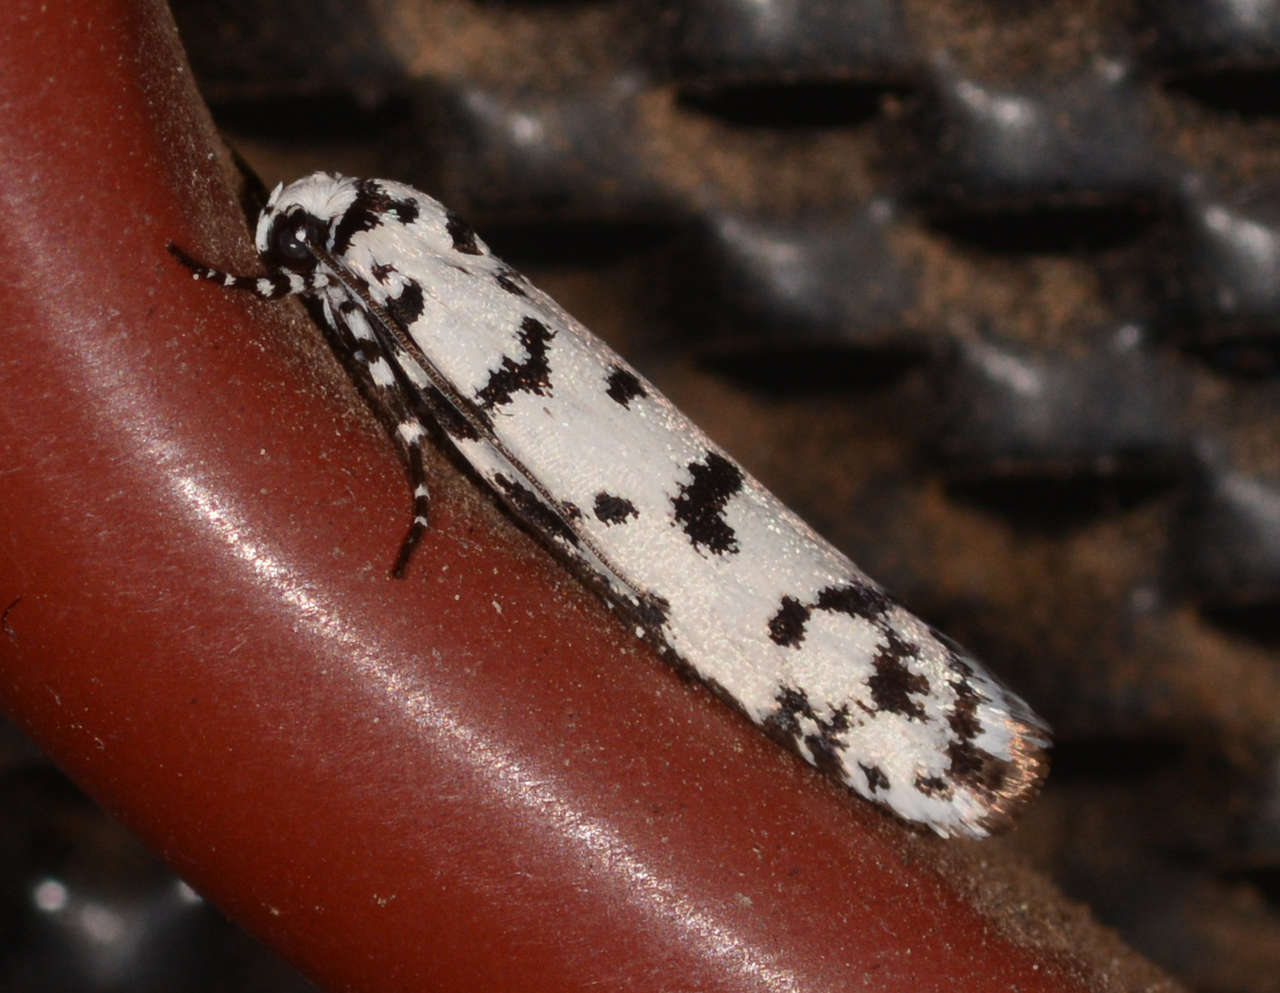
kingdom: Animalia
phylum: Arthropoda
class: Insecta
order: Lepidoptera
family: Ethmiidae
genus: Ethmia
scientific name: Ethmia eupostica
